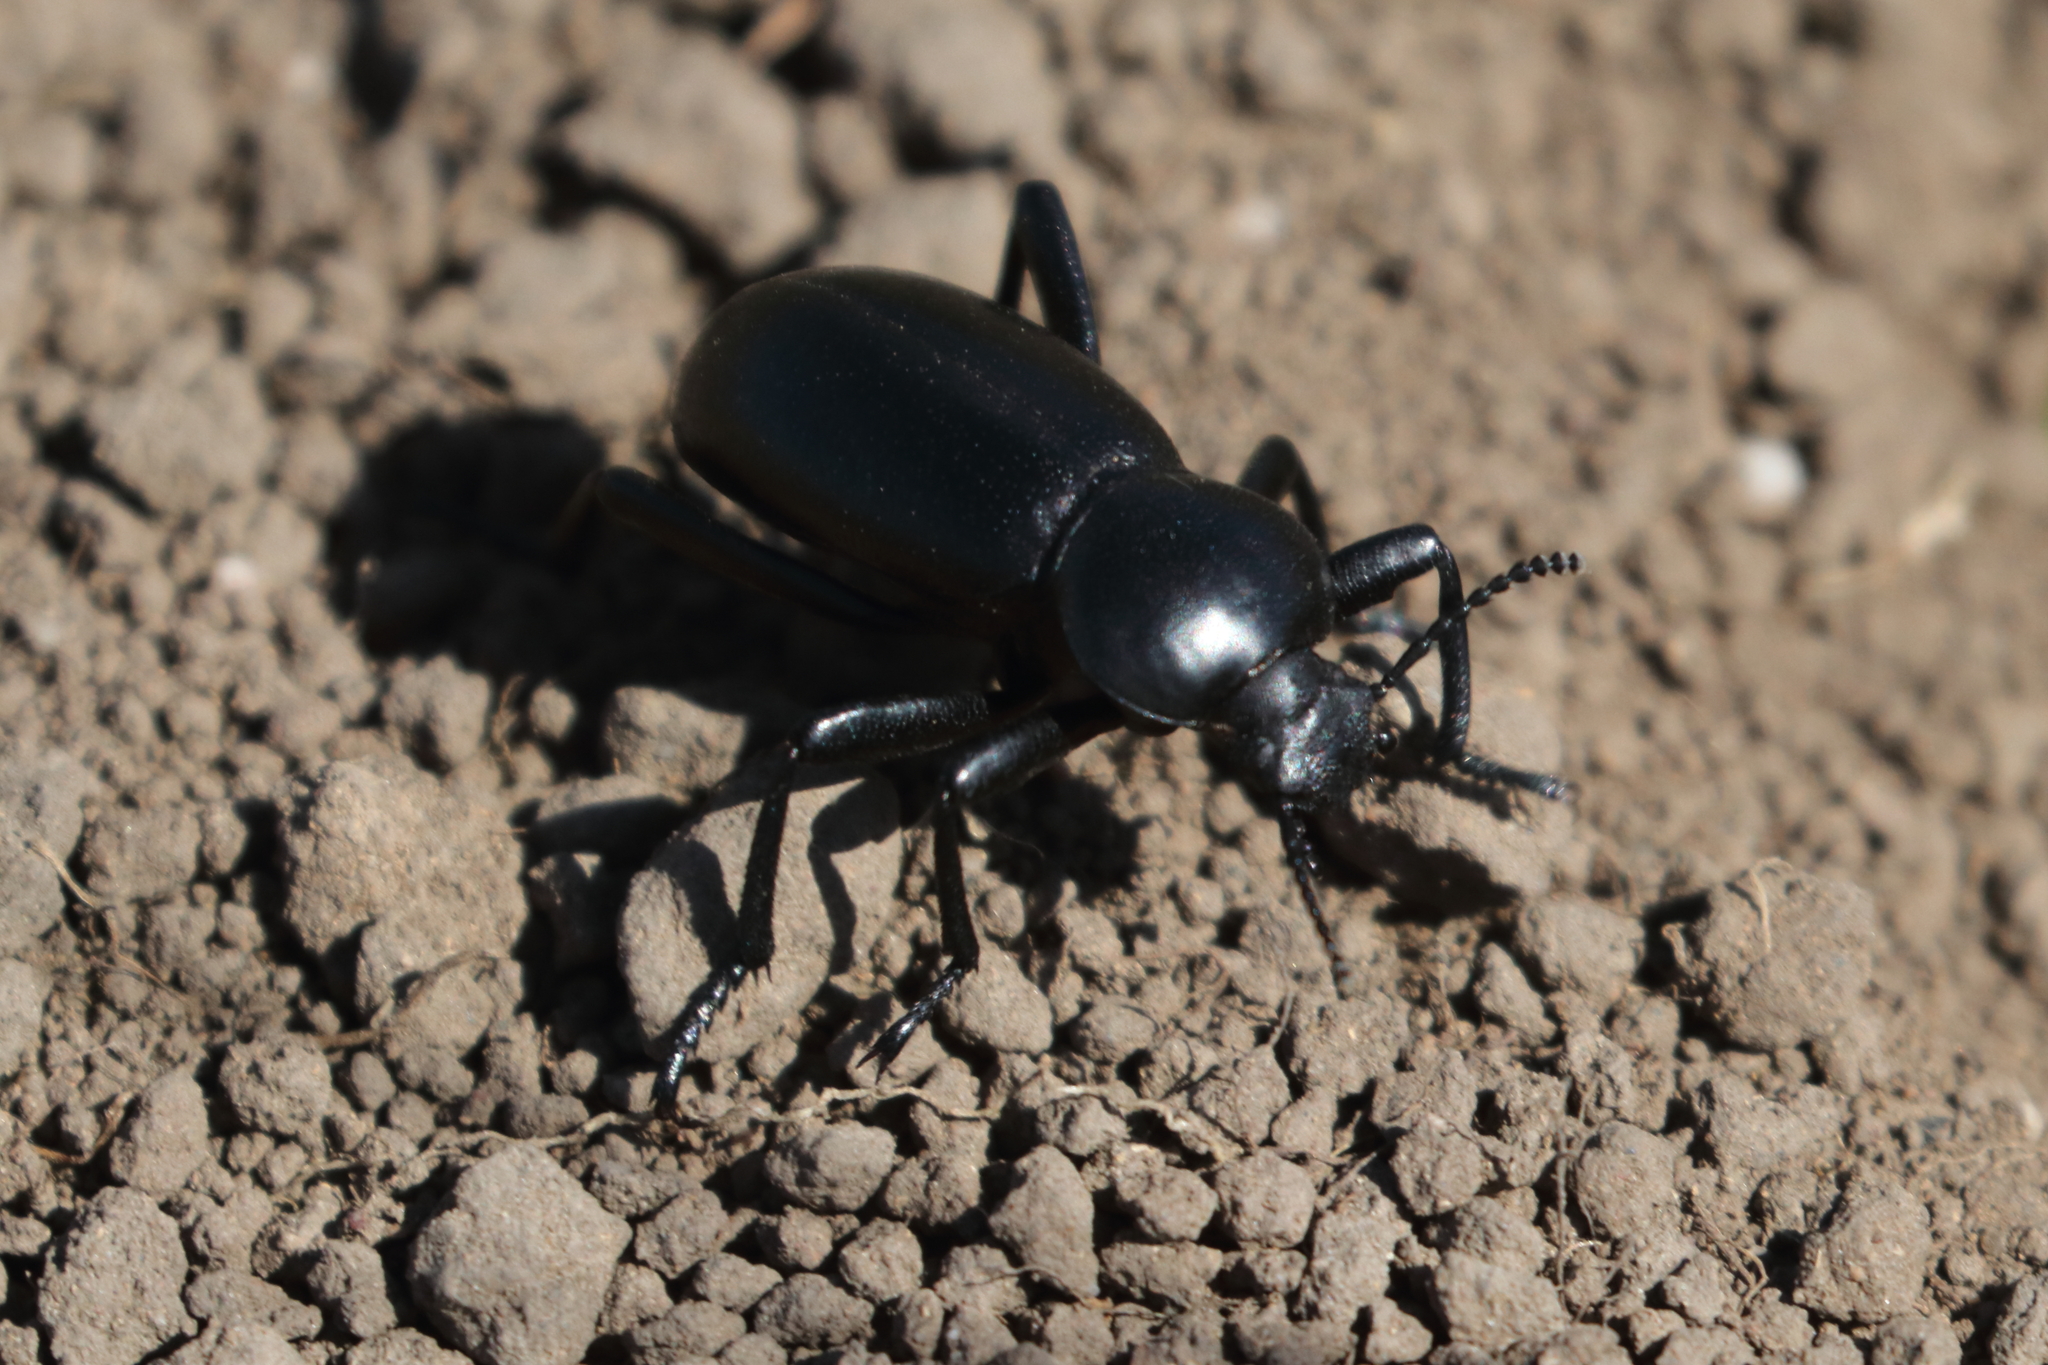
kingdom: Animalia
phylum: Arthropoda
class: Insecta
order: Coleoptera
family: Tenebrionidae
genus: Eleodes
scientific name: Eleodes grandicollis
